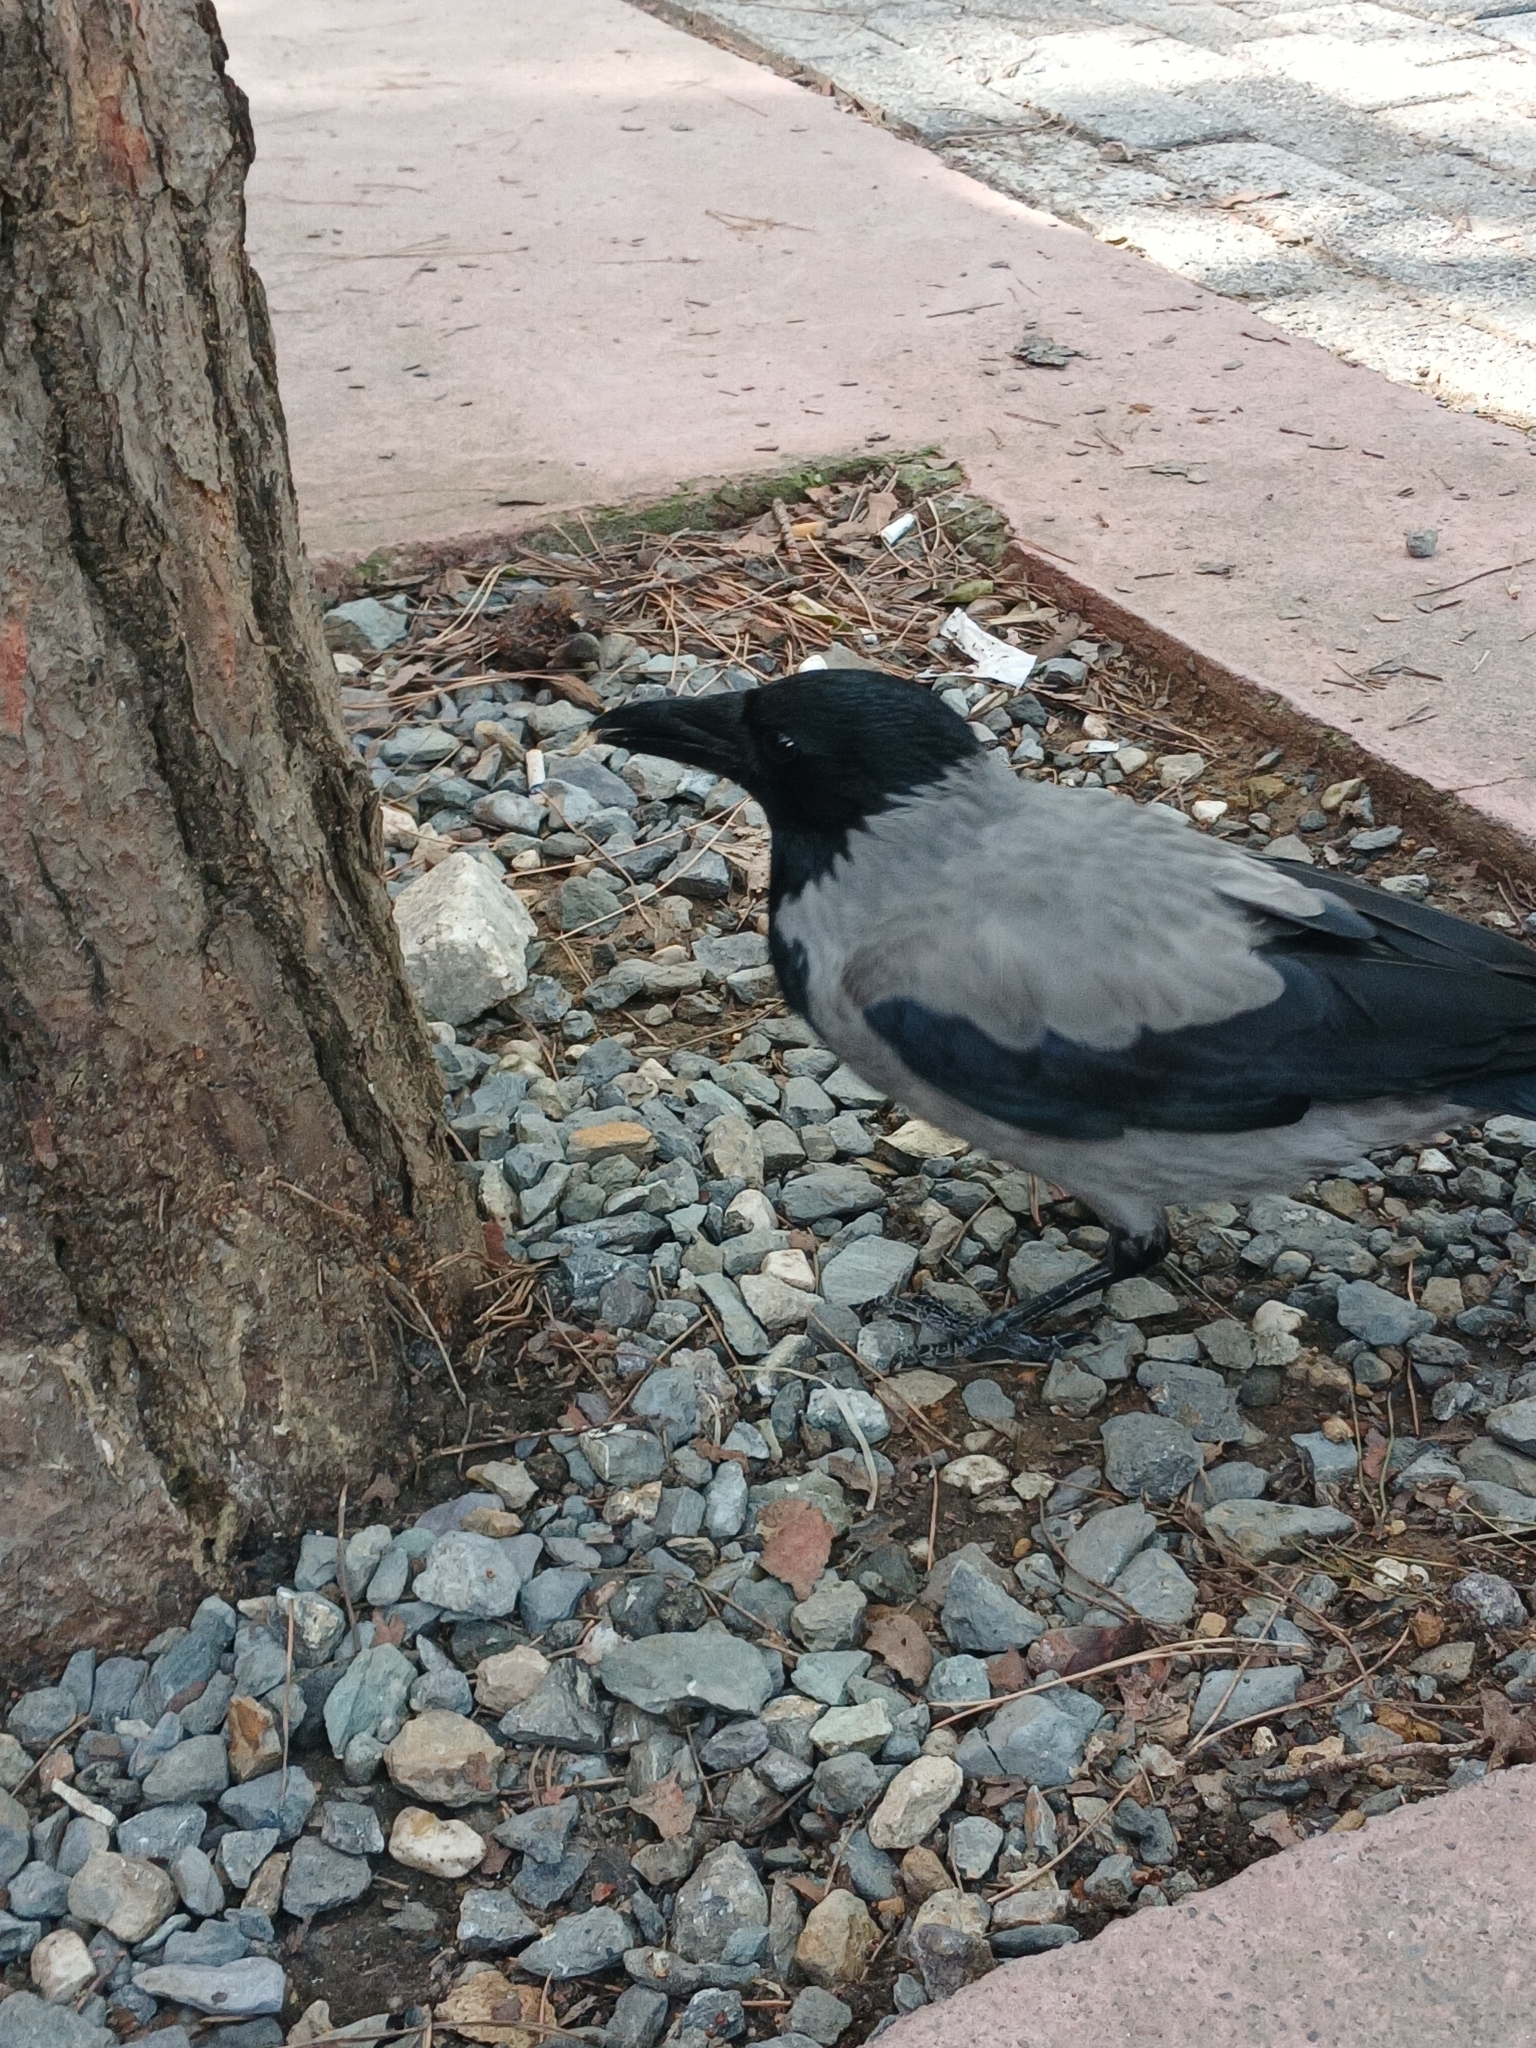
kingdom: Animalia
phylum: Chordata
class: Aves
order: Passeriformes
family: Corvidae
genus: Corvus
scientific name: Corvus cornix
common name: Hooded crow
